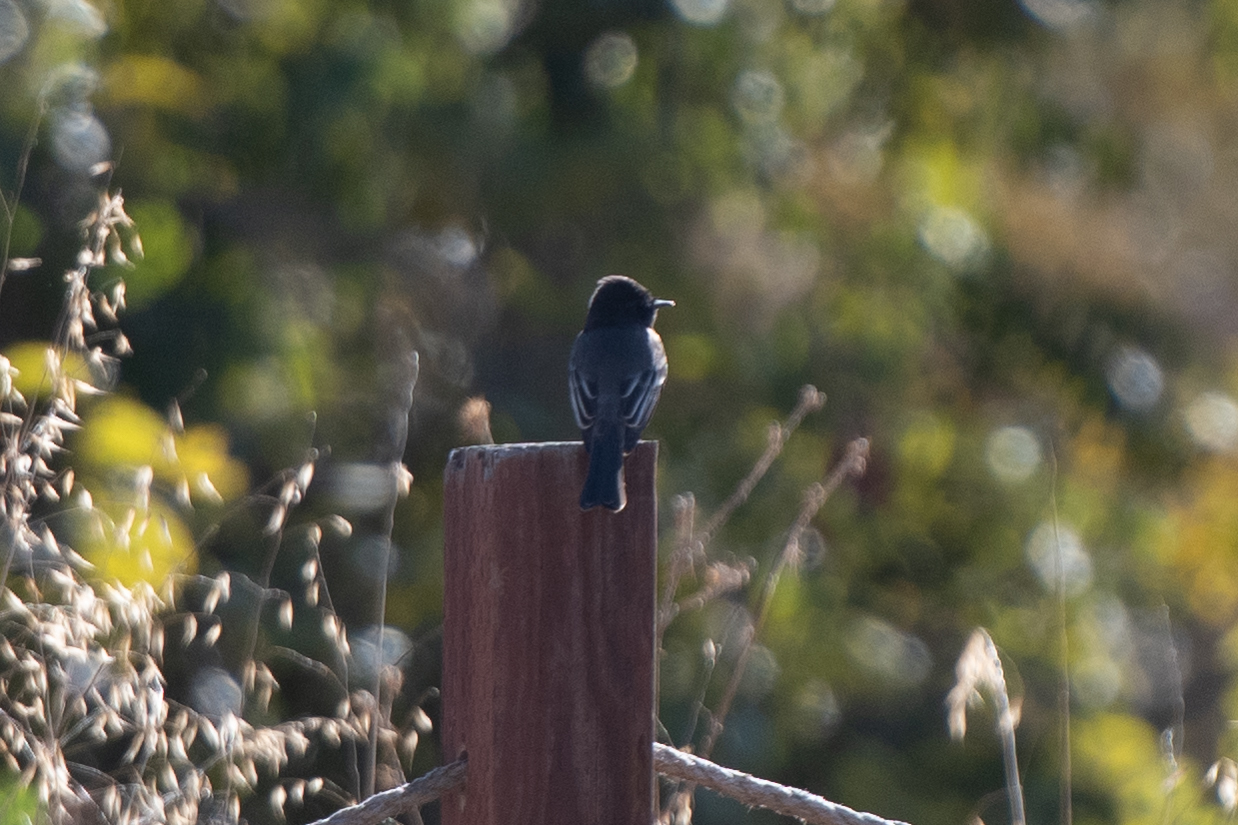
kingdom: Animalia
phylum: Chordata
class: Aves
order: Passeriformes
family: Tyrannidae
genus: Sayornis
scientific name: Sayornis nigricans
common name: Black phoebe
